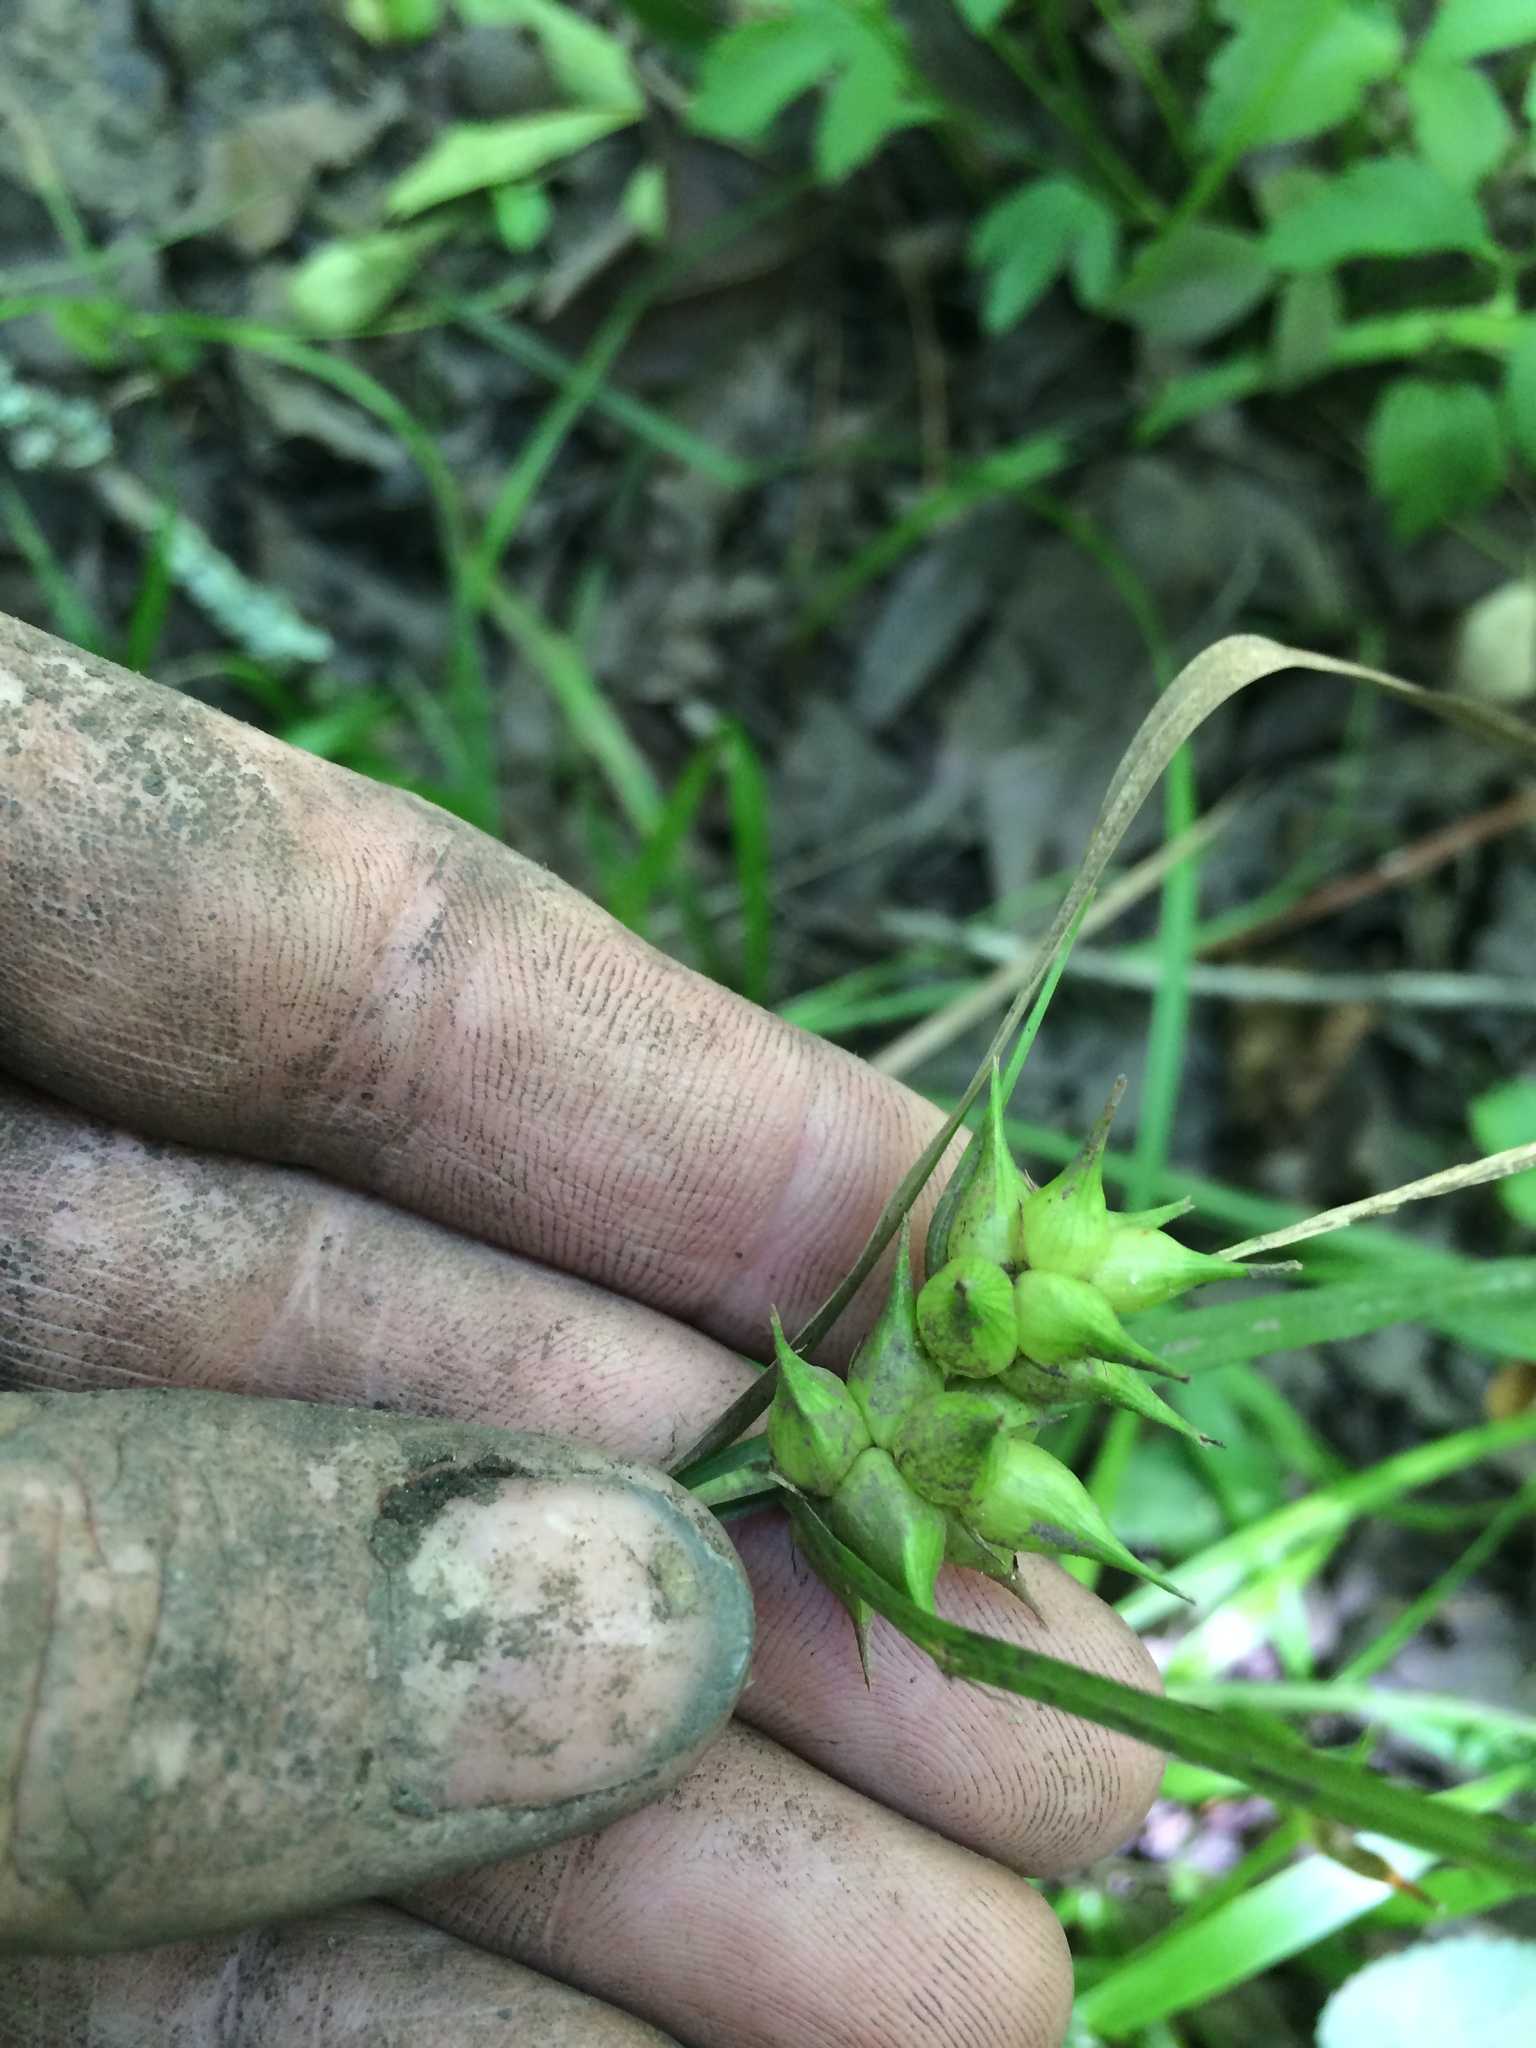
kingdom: Plantae
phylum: Tracheophyta
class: Liliopsida
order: Poales
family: Cyperaceae
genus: Carex
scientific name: Carex intumescens
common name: Greater bladder sedge
